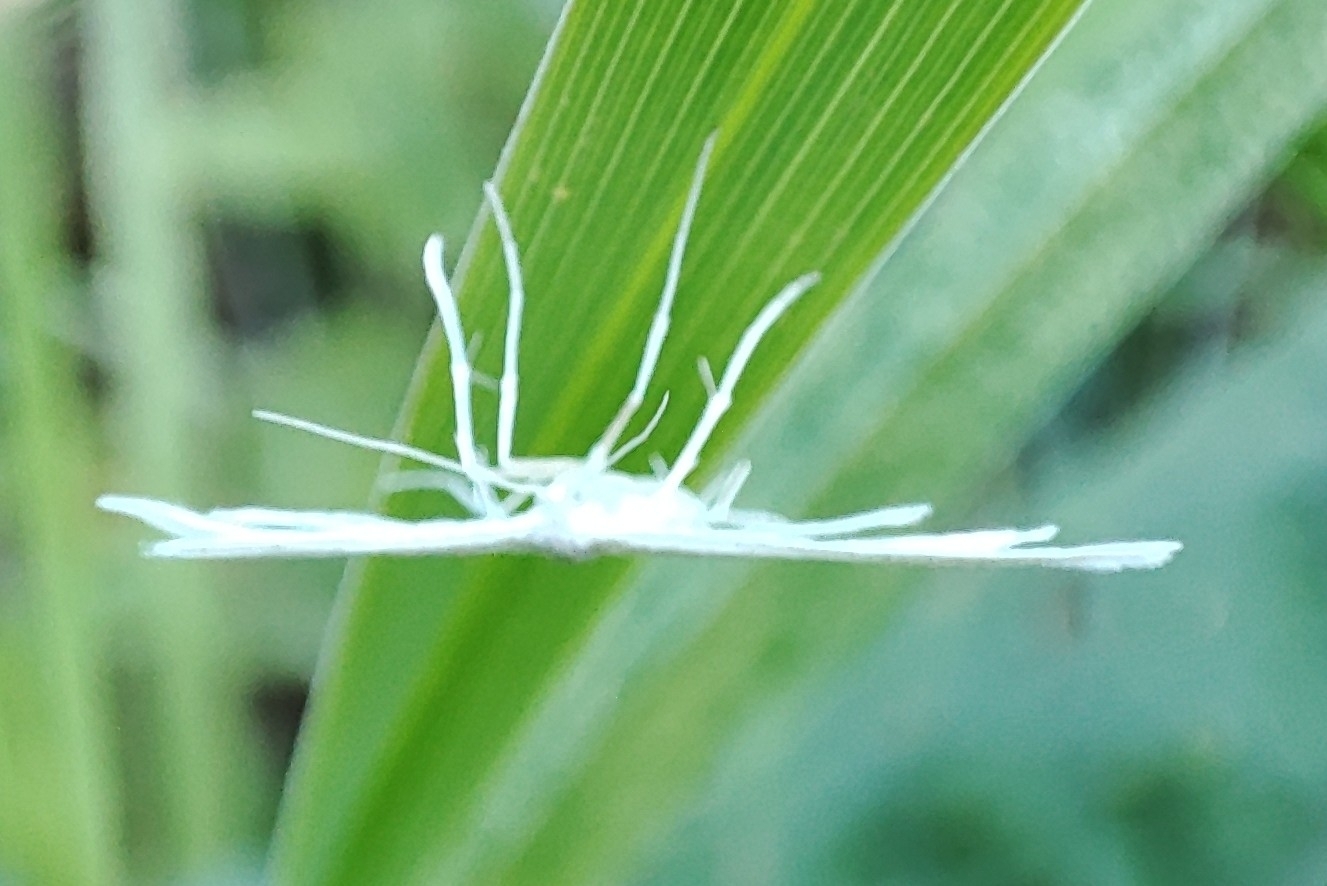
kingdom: Animalia
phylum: Arthropoda
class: Insecta
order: Lepidoptera
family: Pterophoridae
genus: Pterophorus
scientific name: Pterophorus pentadactyla
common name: White plume moth
